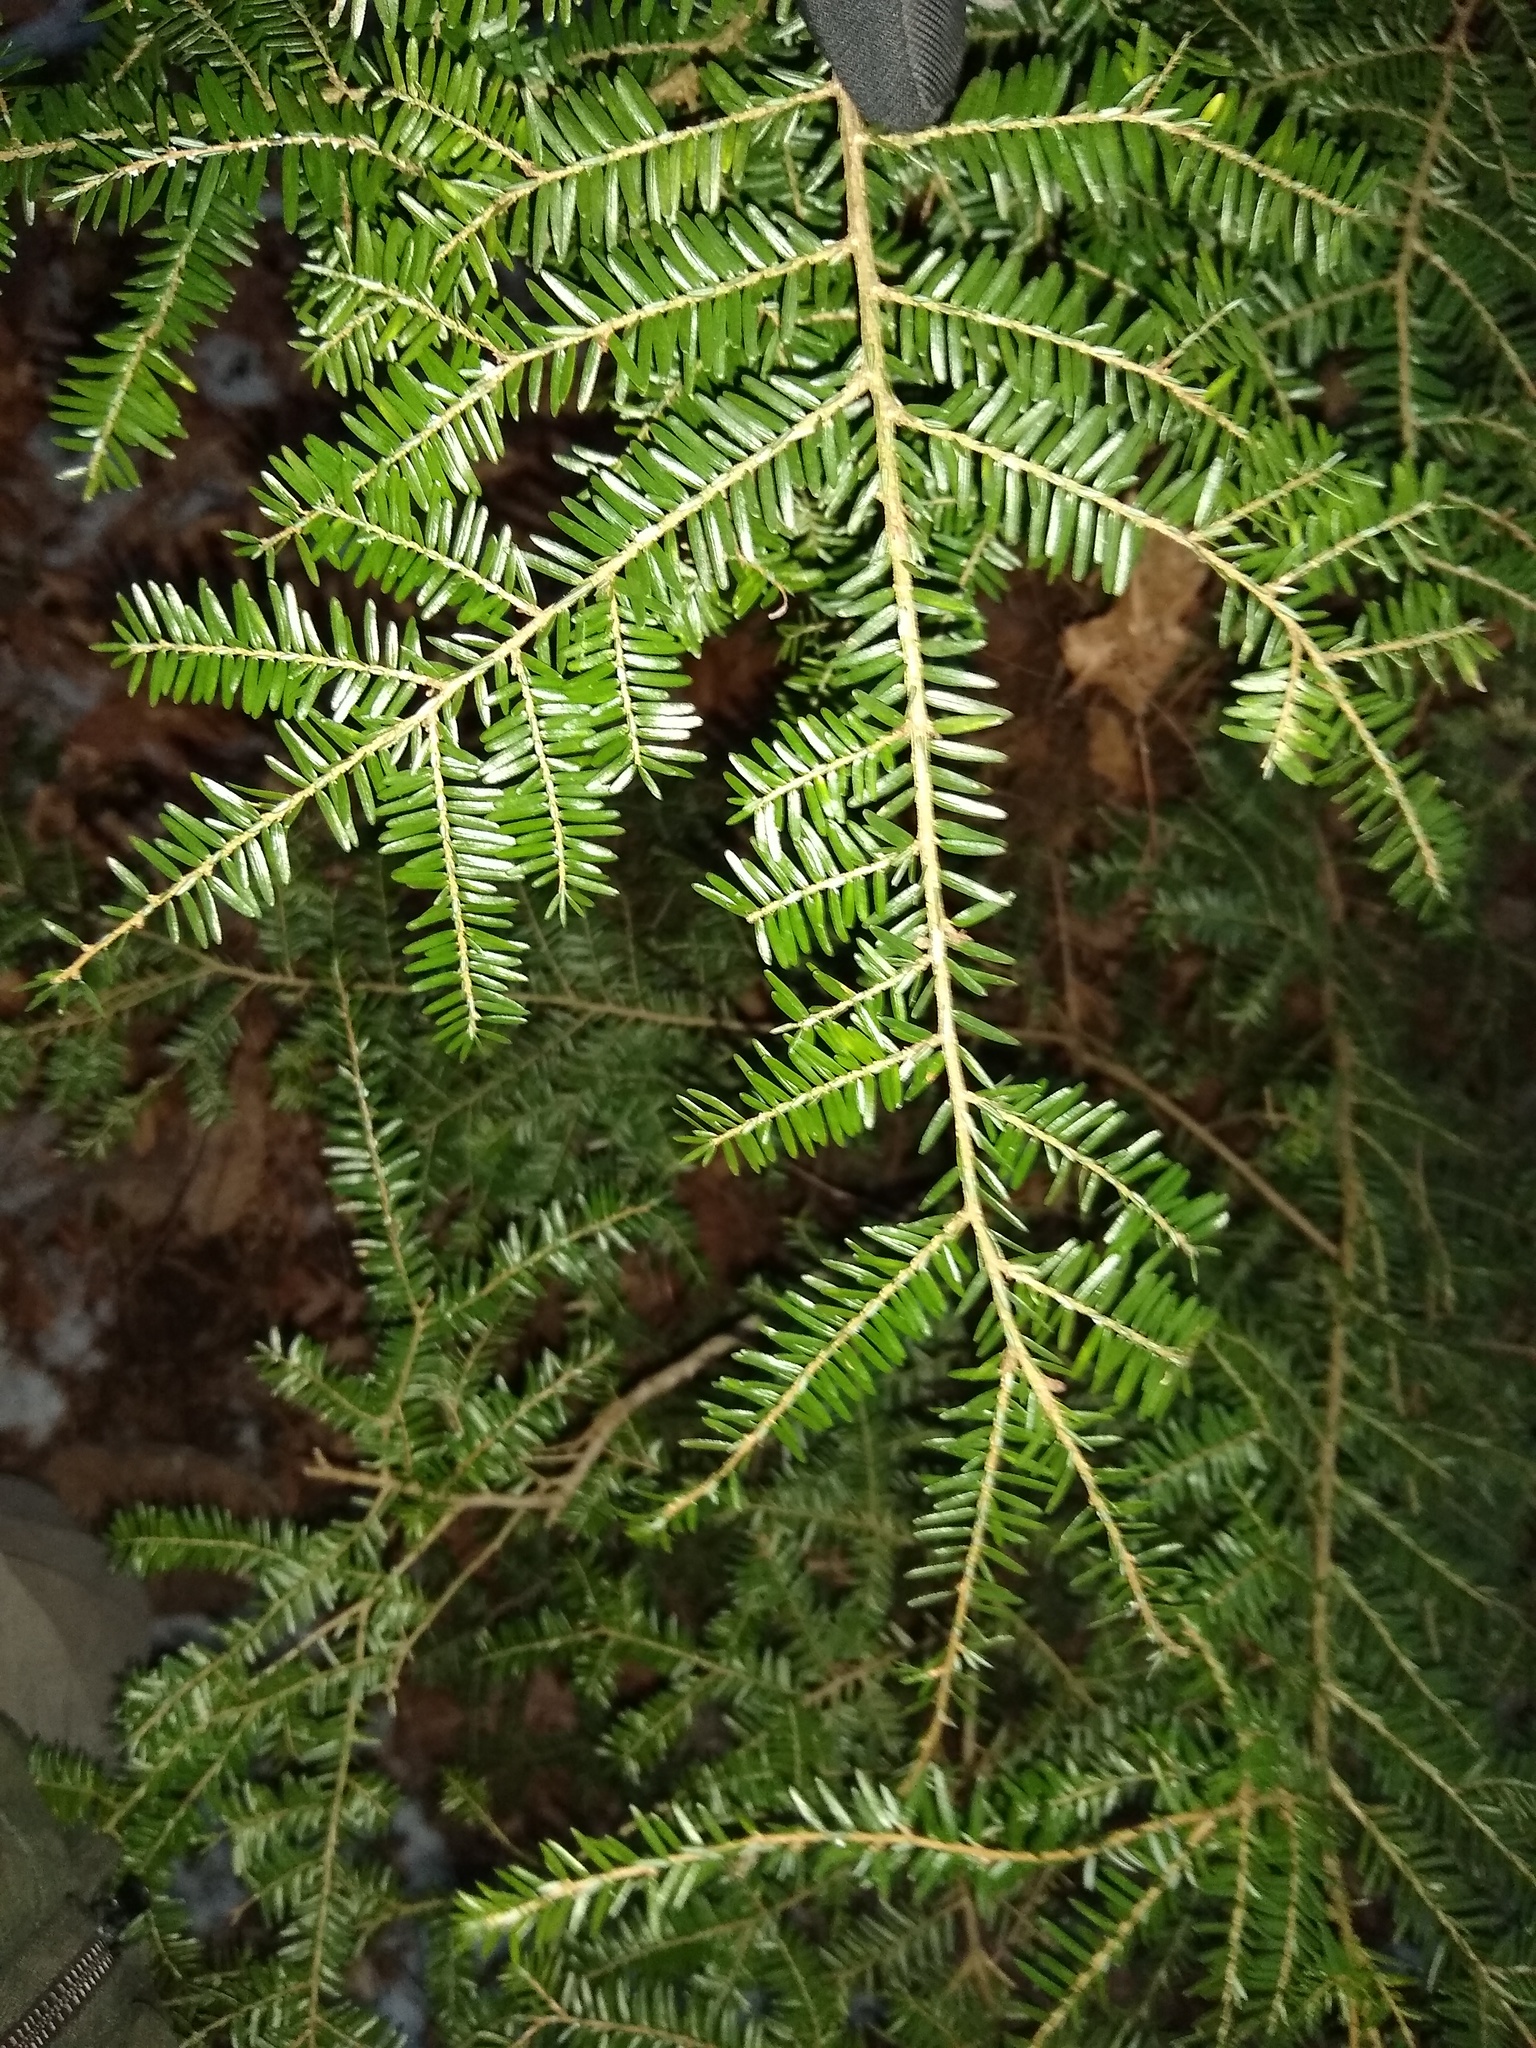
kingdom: Plantae
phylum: Tracheophyta
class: Pinopsida
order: Pinales
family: Pinaceae
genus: Tsuga
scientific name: Tsuga canadensis
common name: Eastern hemlock
